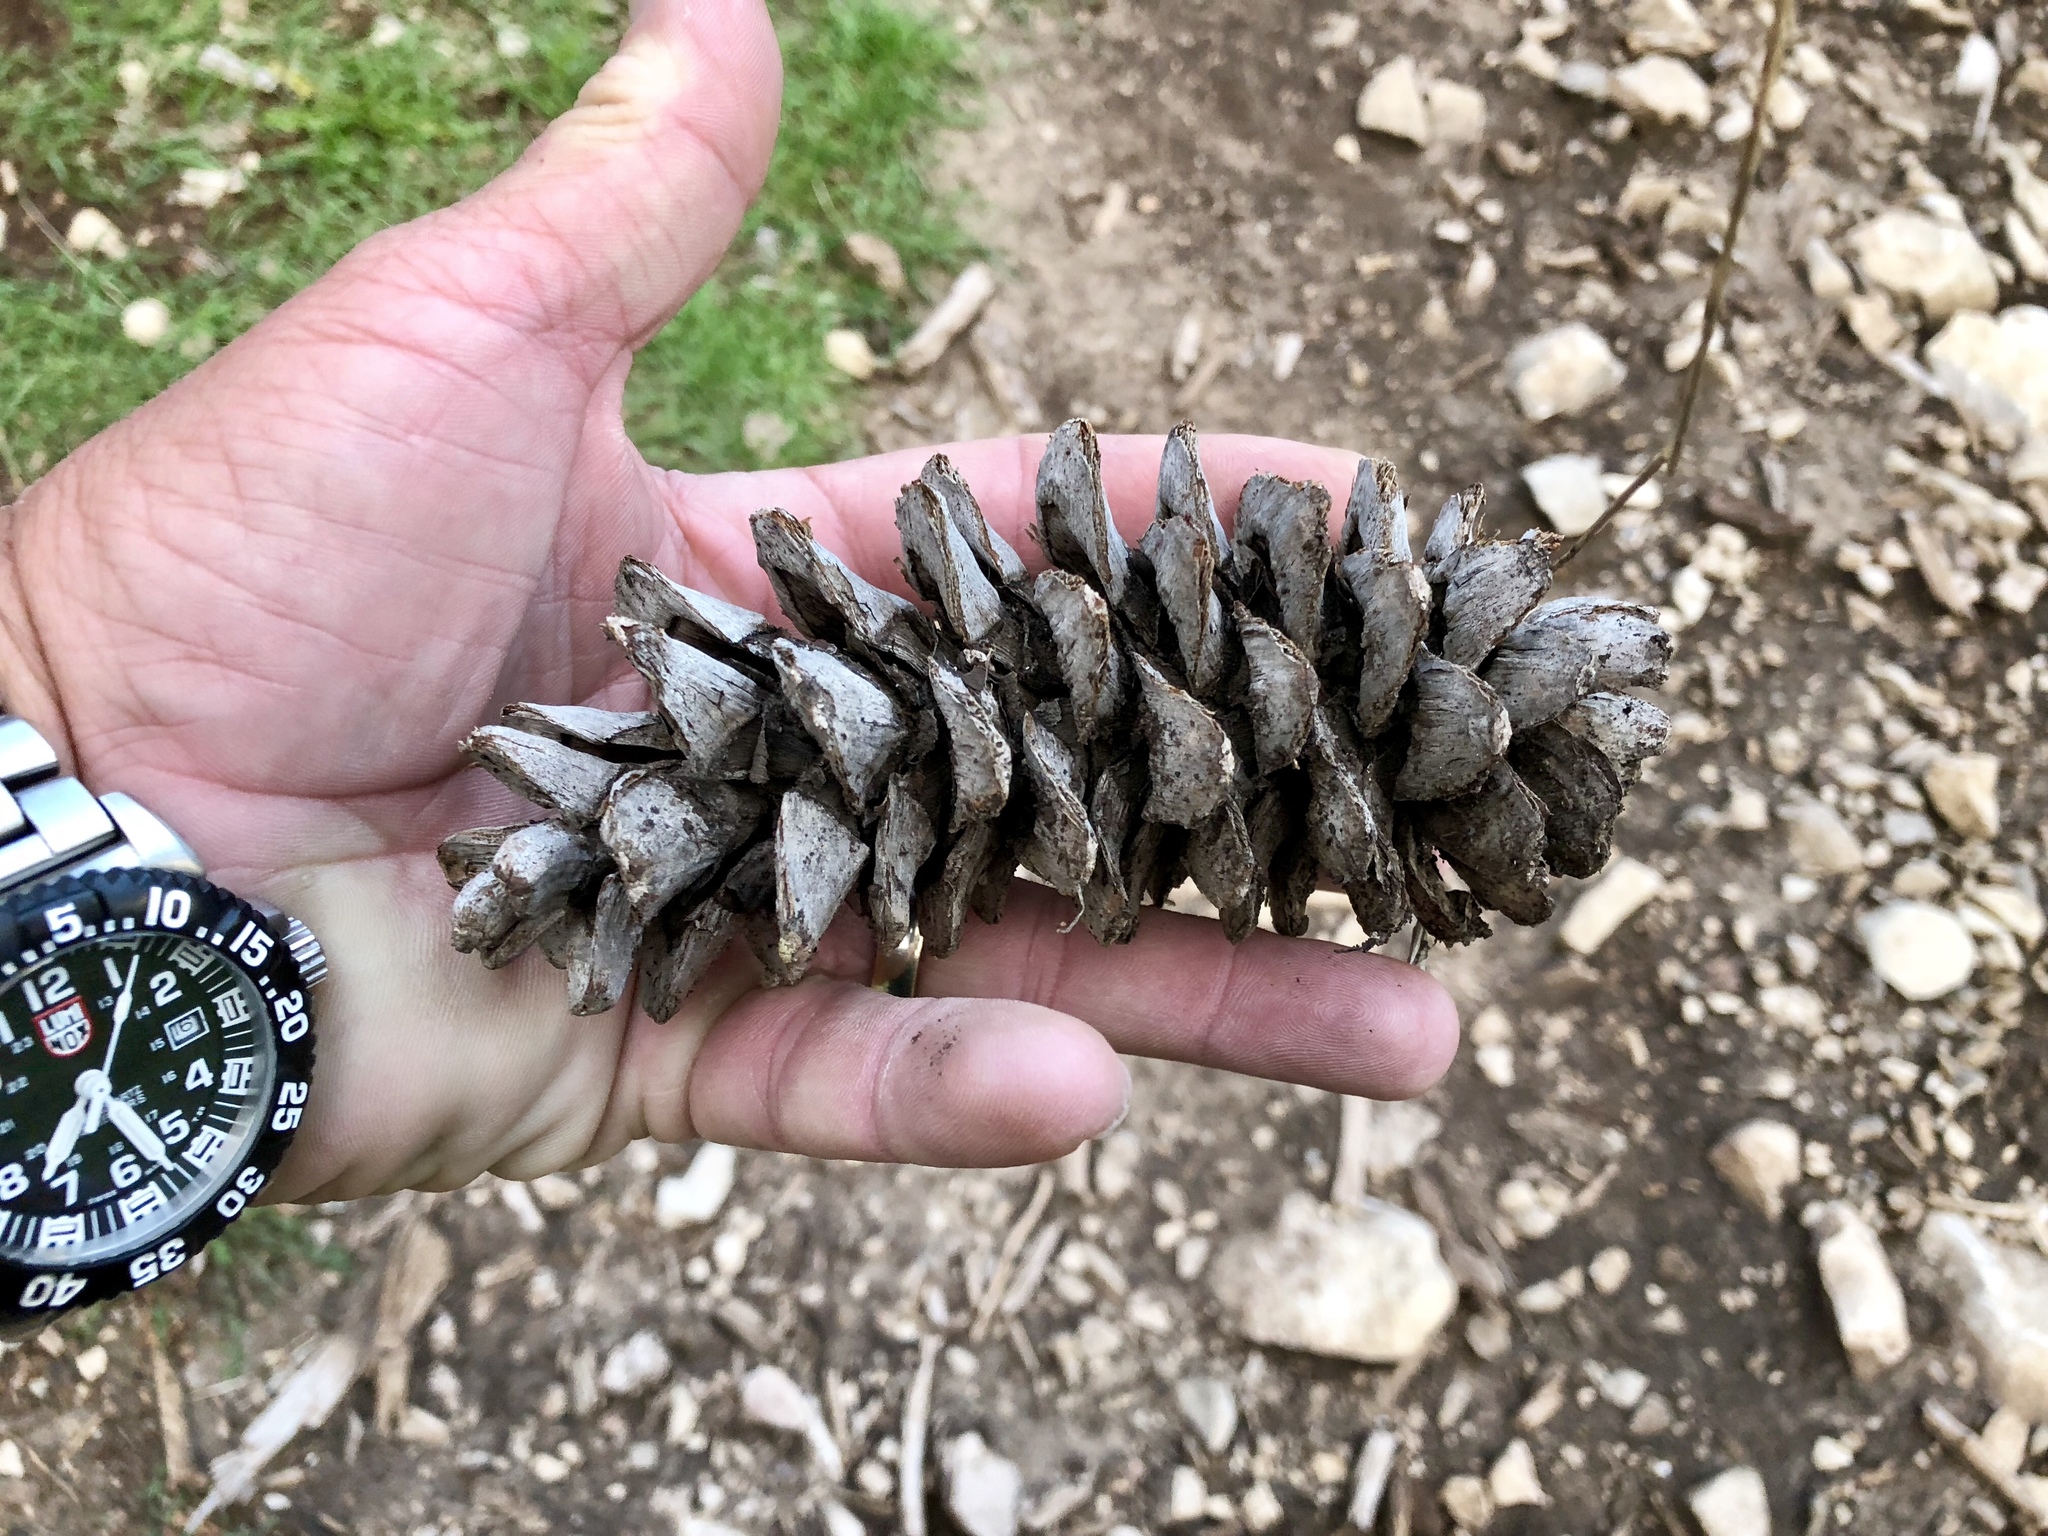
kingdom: Plantae
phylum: Tracheophyta
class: Pinopsida
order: Pinales
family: Pinaceae
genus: Pinus
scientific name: Pinus strobiformis
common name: Southwestern white pine
